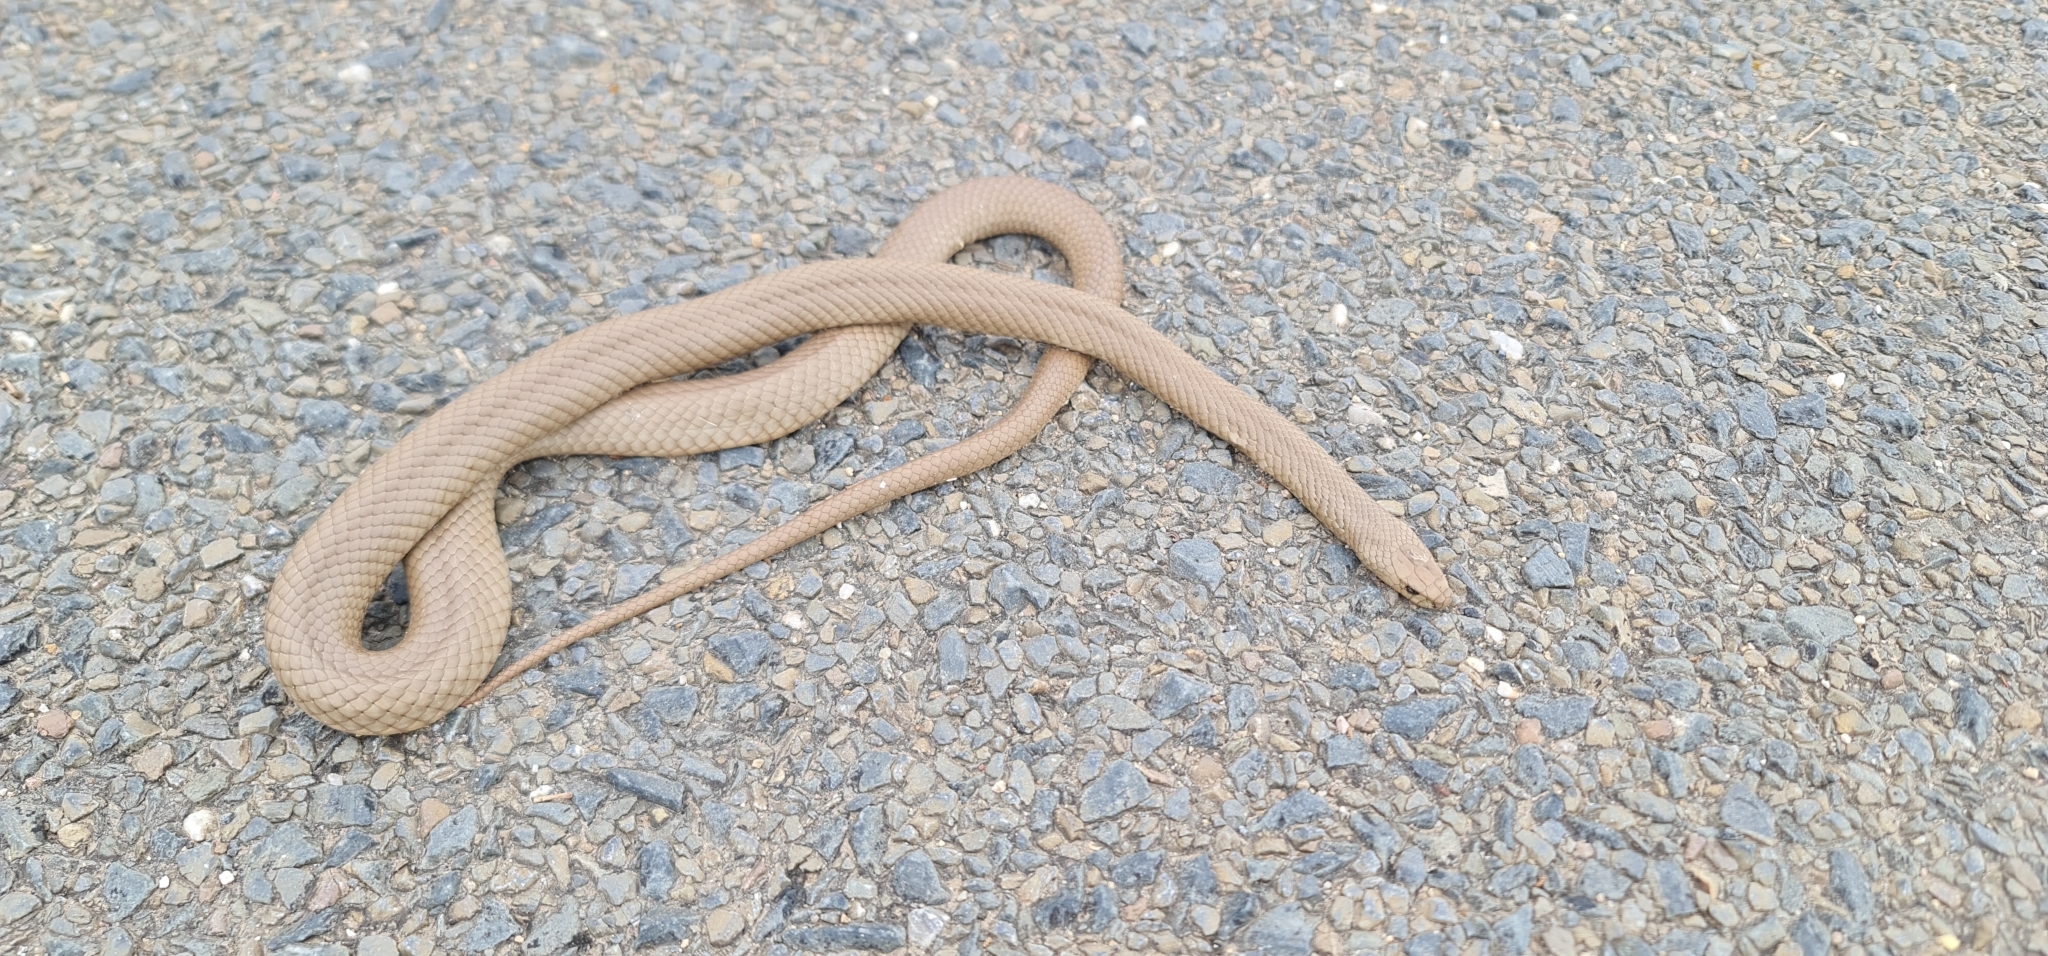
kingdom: Animalia
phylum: Chordata
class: Squamata
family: Elapidae
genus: Pseudonaja
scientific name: Pseudonaja textilis
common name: Eastern brown snake
